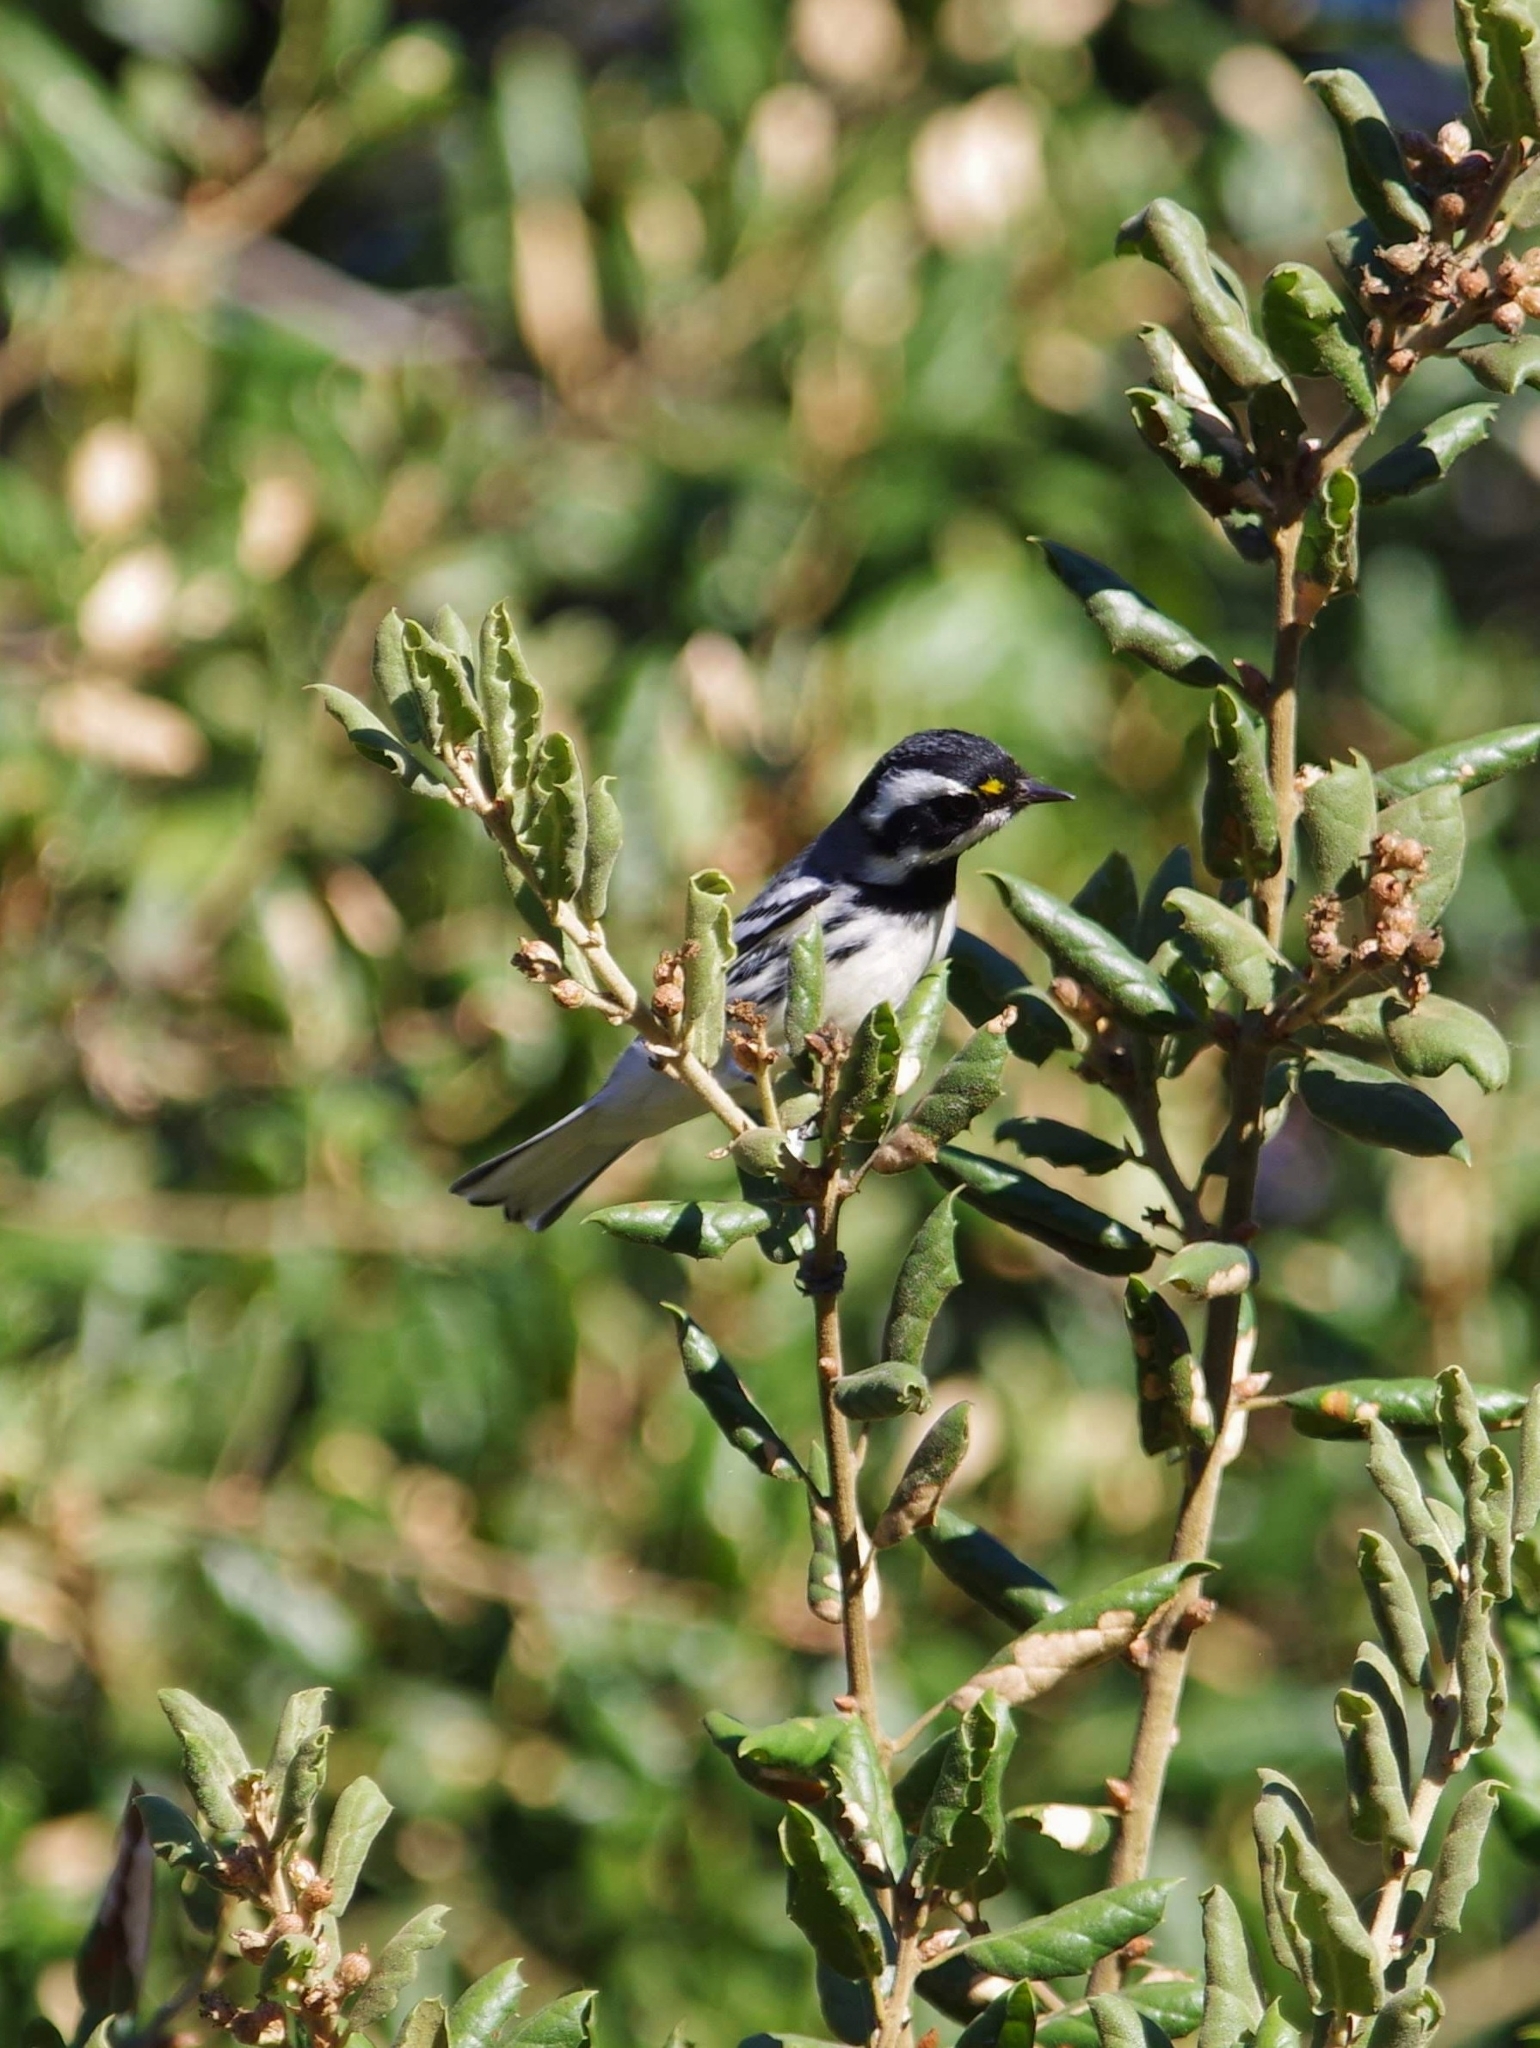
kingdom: Animalia
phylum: Chordata
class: Aves
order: Passeriformes
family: Parulidae
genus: Setophaga
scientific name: Setophaga nigrescens
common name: Black-throated gray warbler
